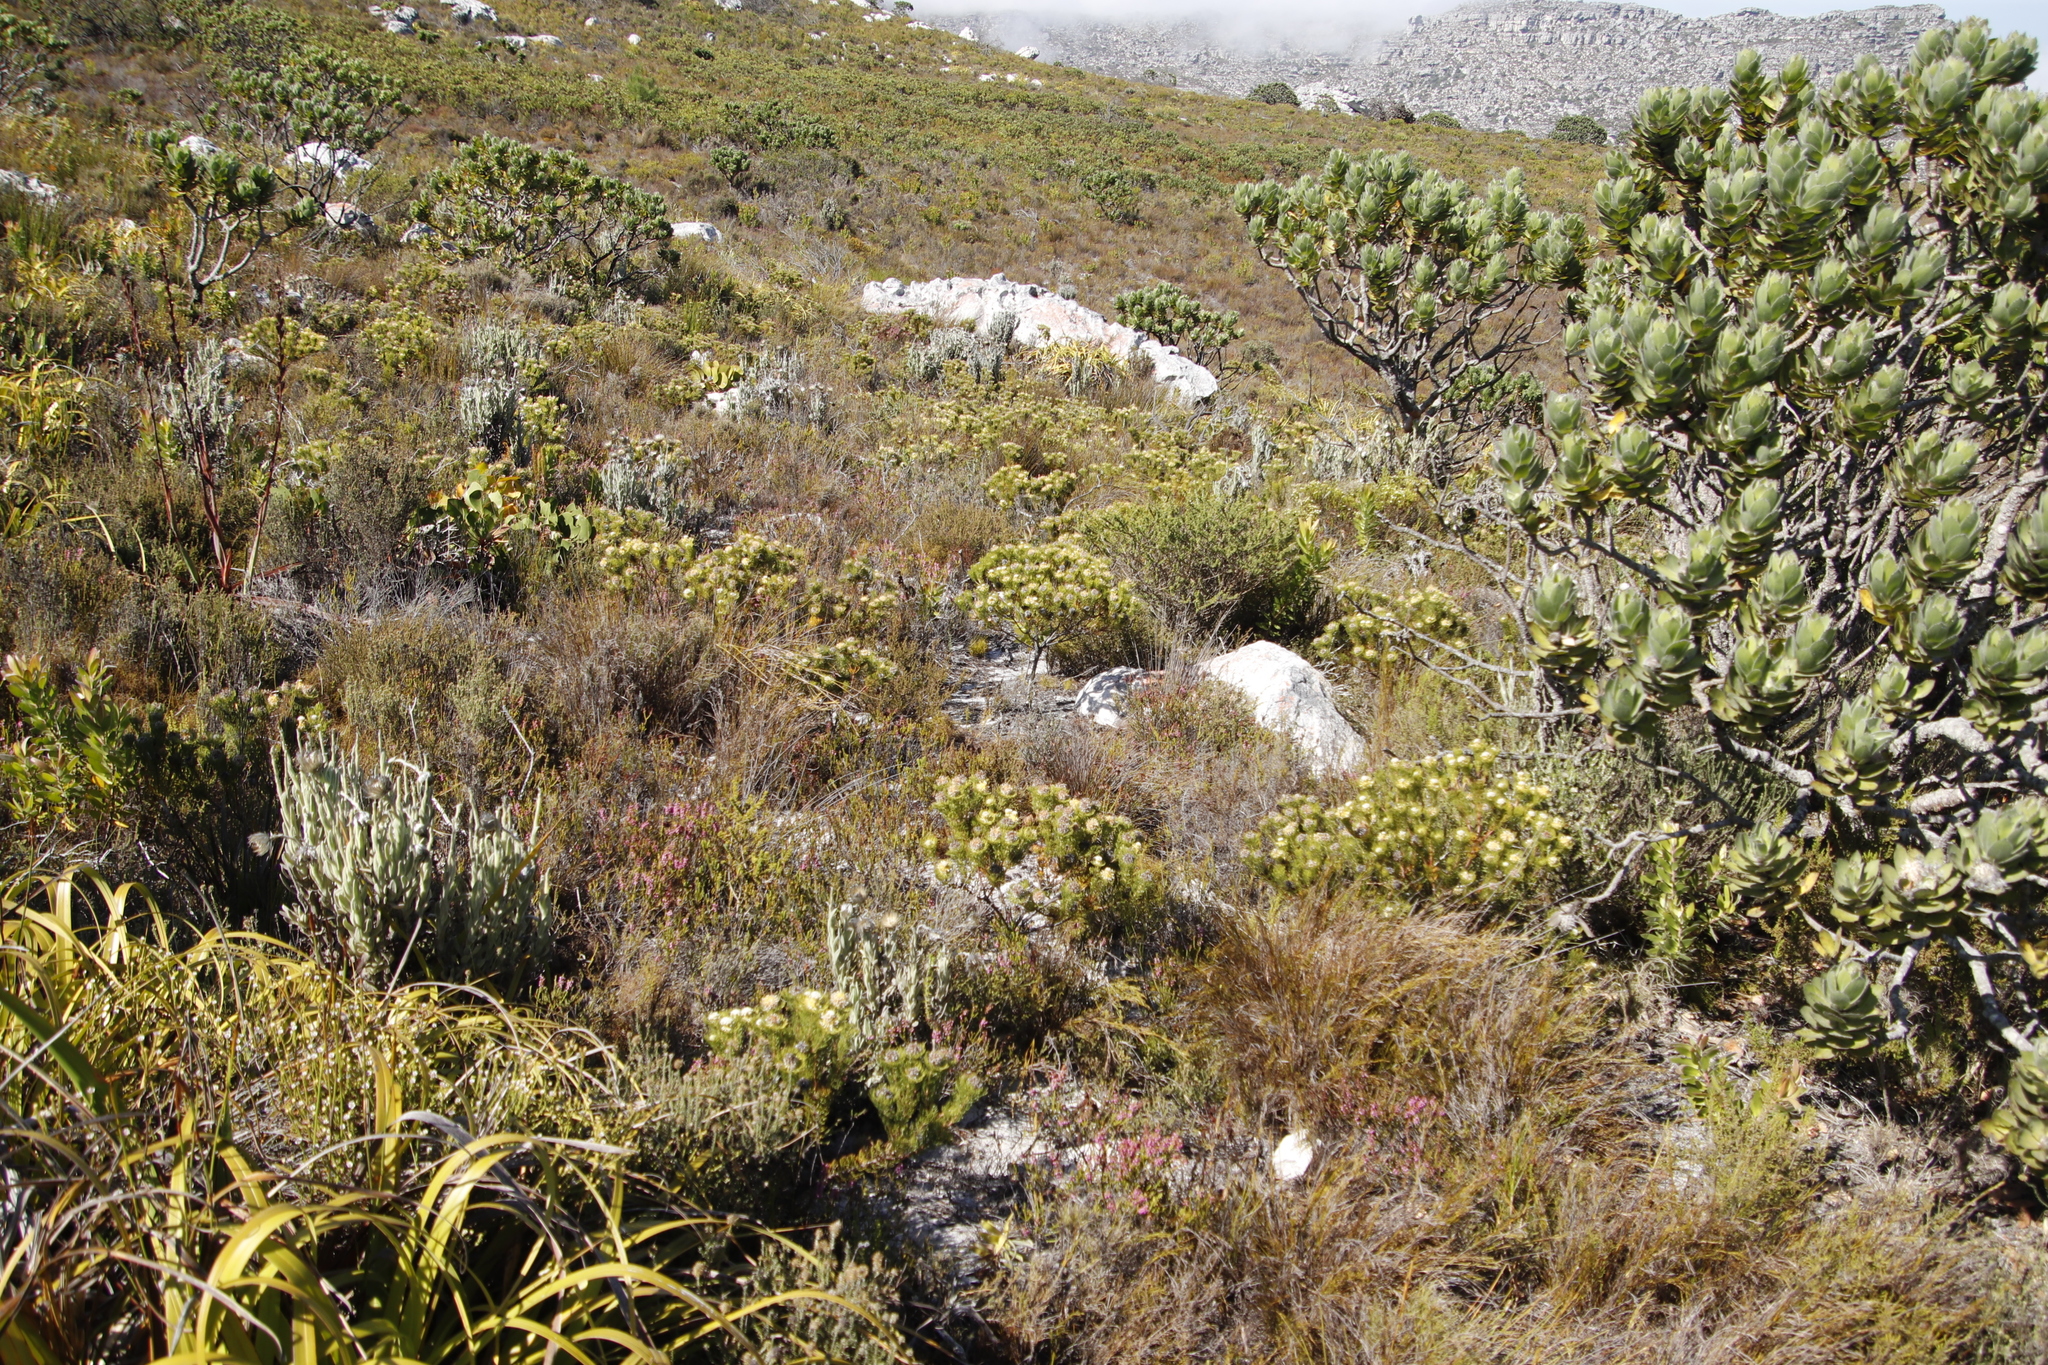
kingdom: Plantae
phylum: Tracheophyta
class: Magnoliopsida
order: Proteales
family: Proteaceae
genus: Serruria
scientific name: Serruria villosa
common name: Golden spiderhead
